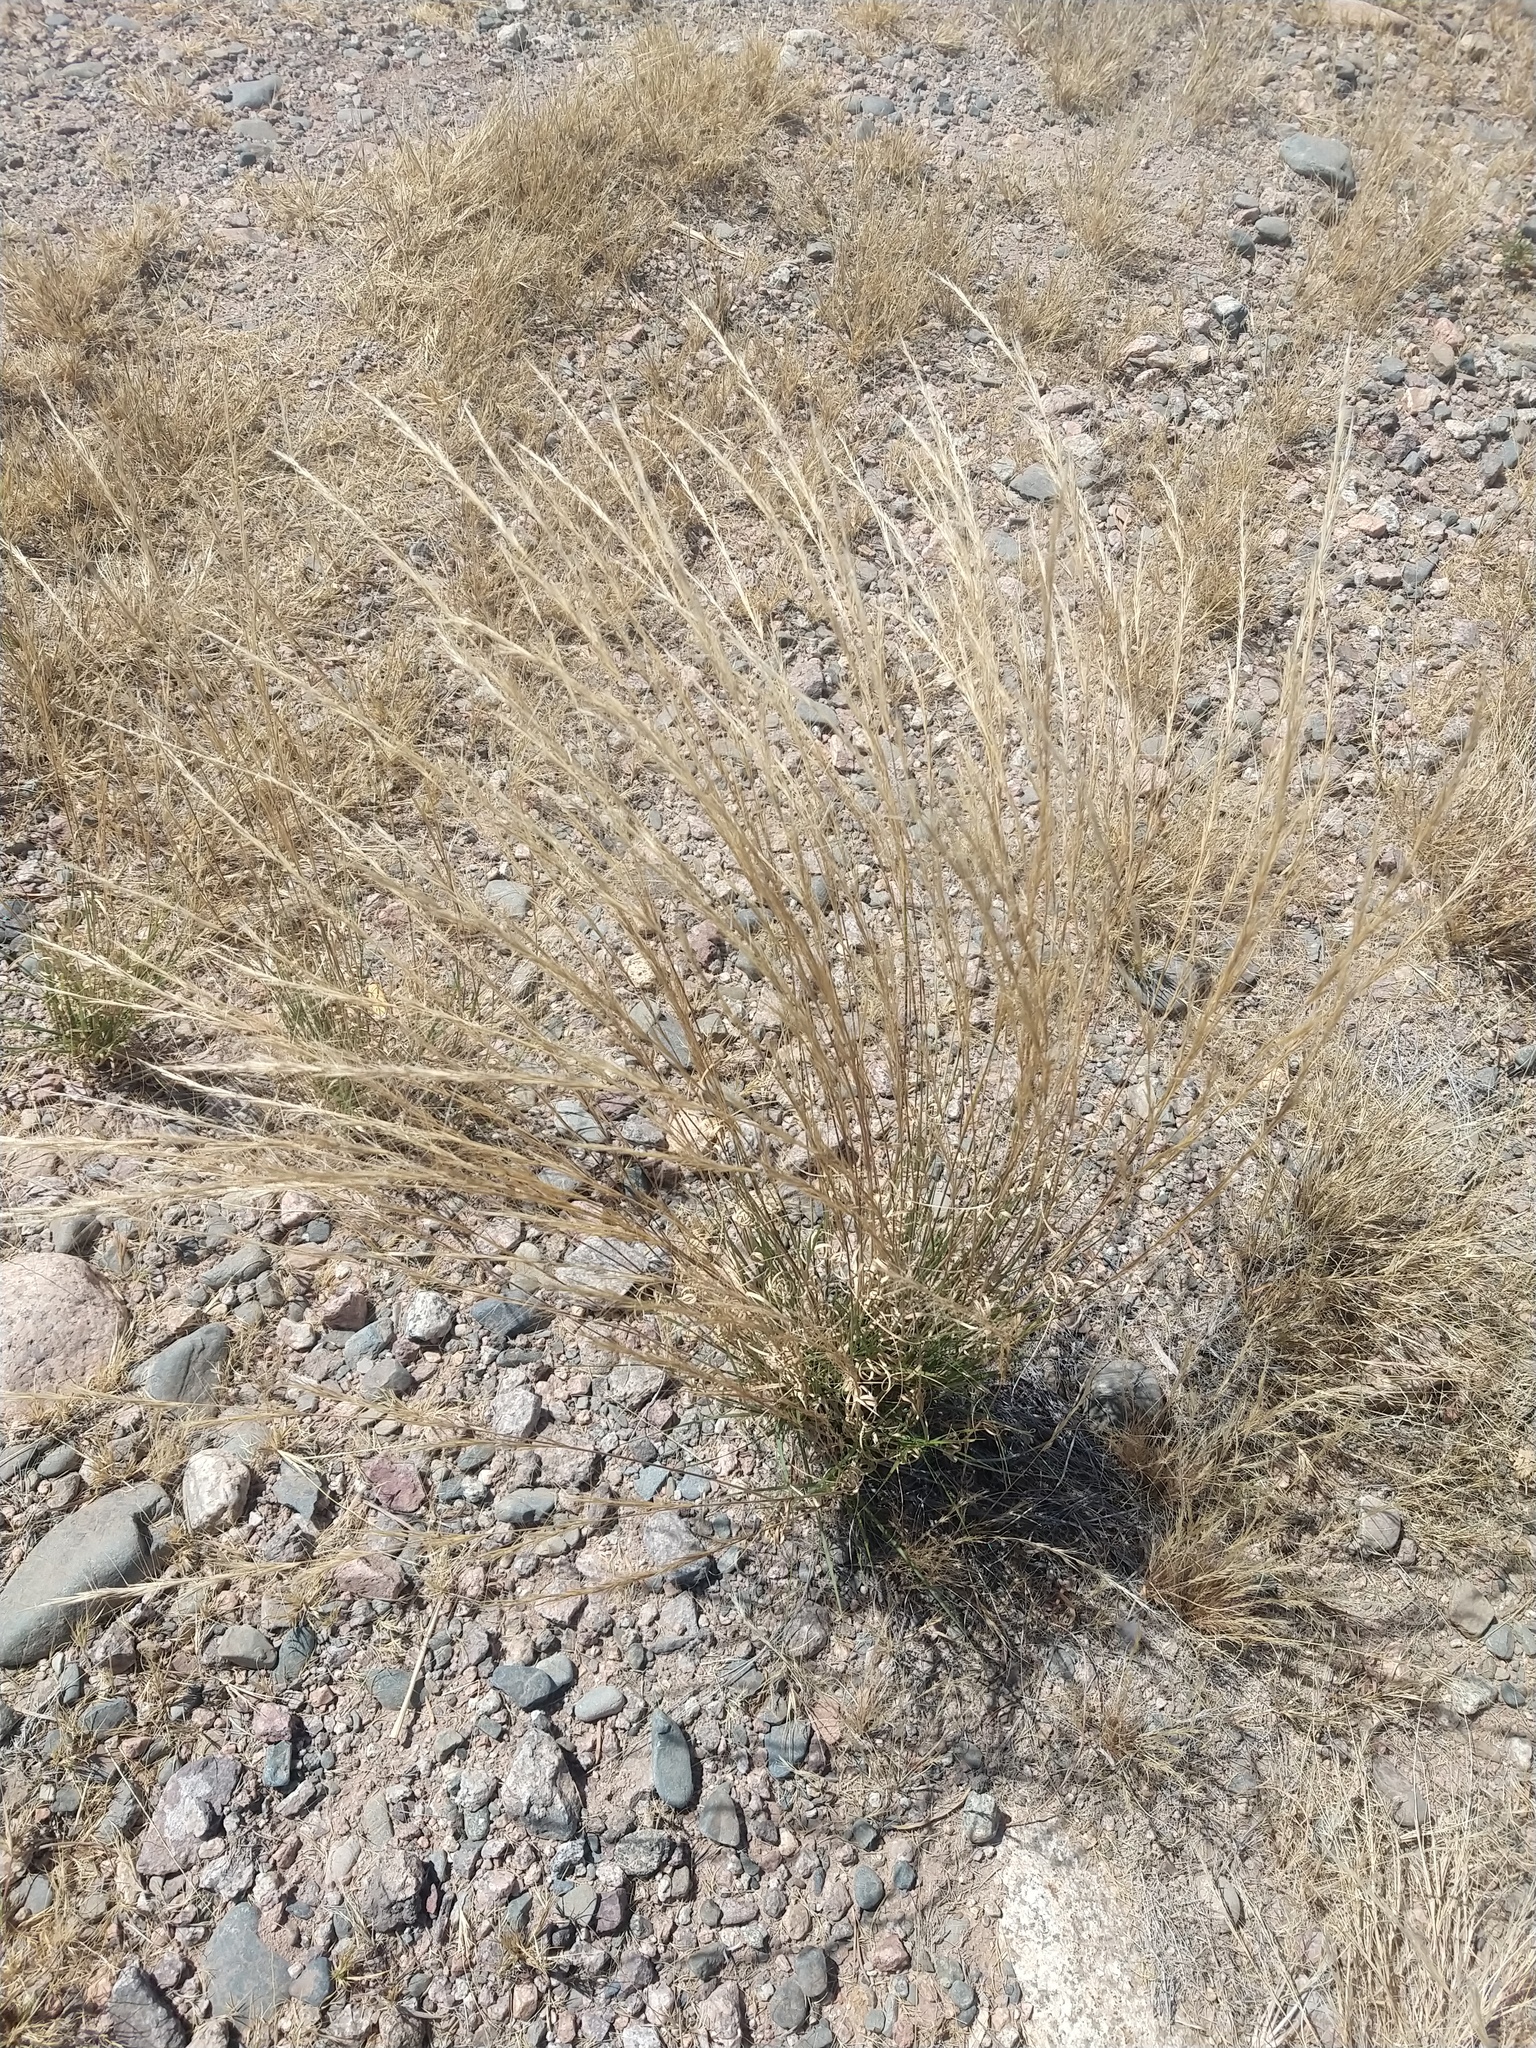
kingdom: Plantae
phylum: Tracheophyta
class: Liliopsida
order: Poales
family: Poaceae
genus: Aristida
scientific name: Aristida adscensionis
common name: Sixweeks threeawn
